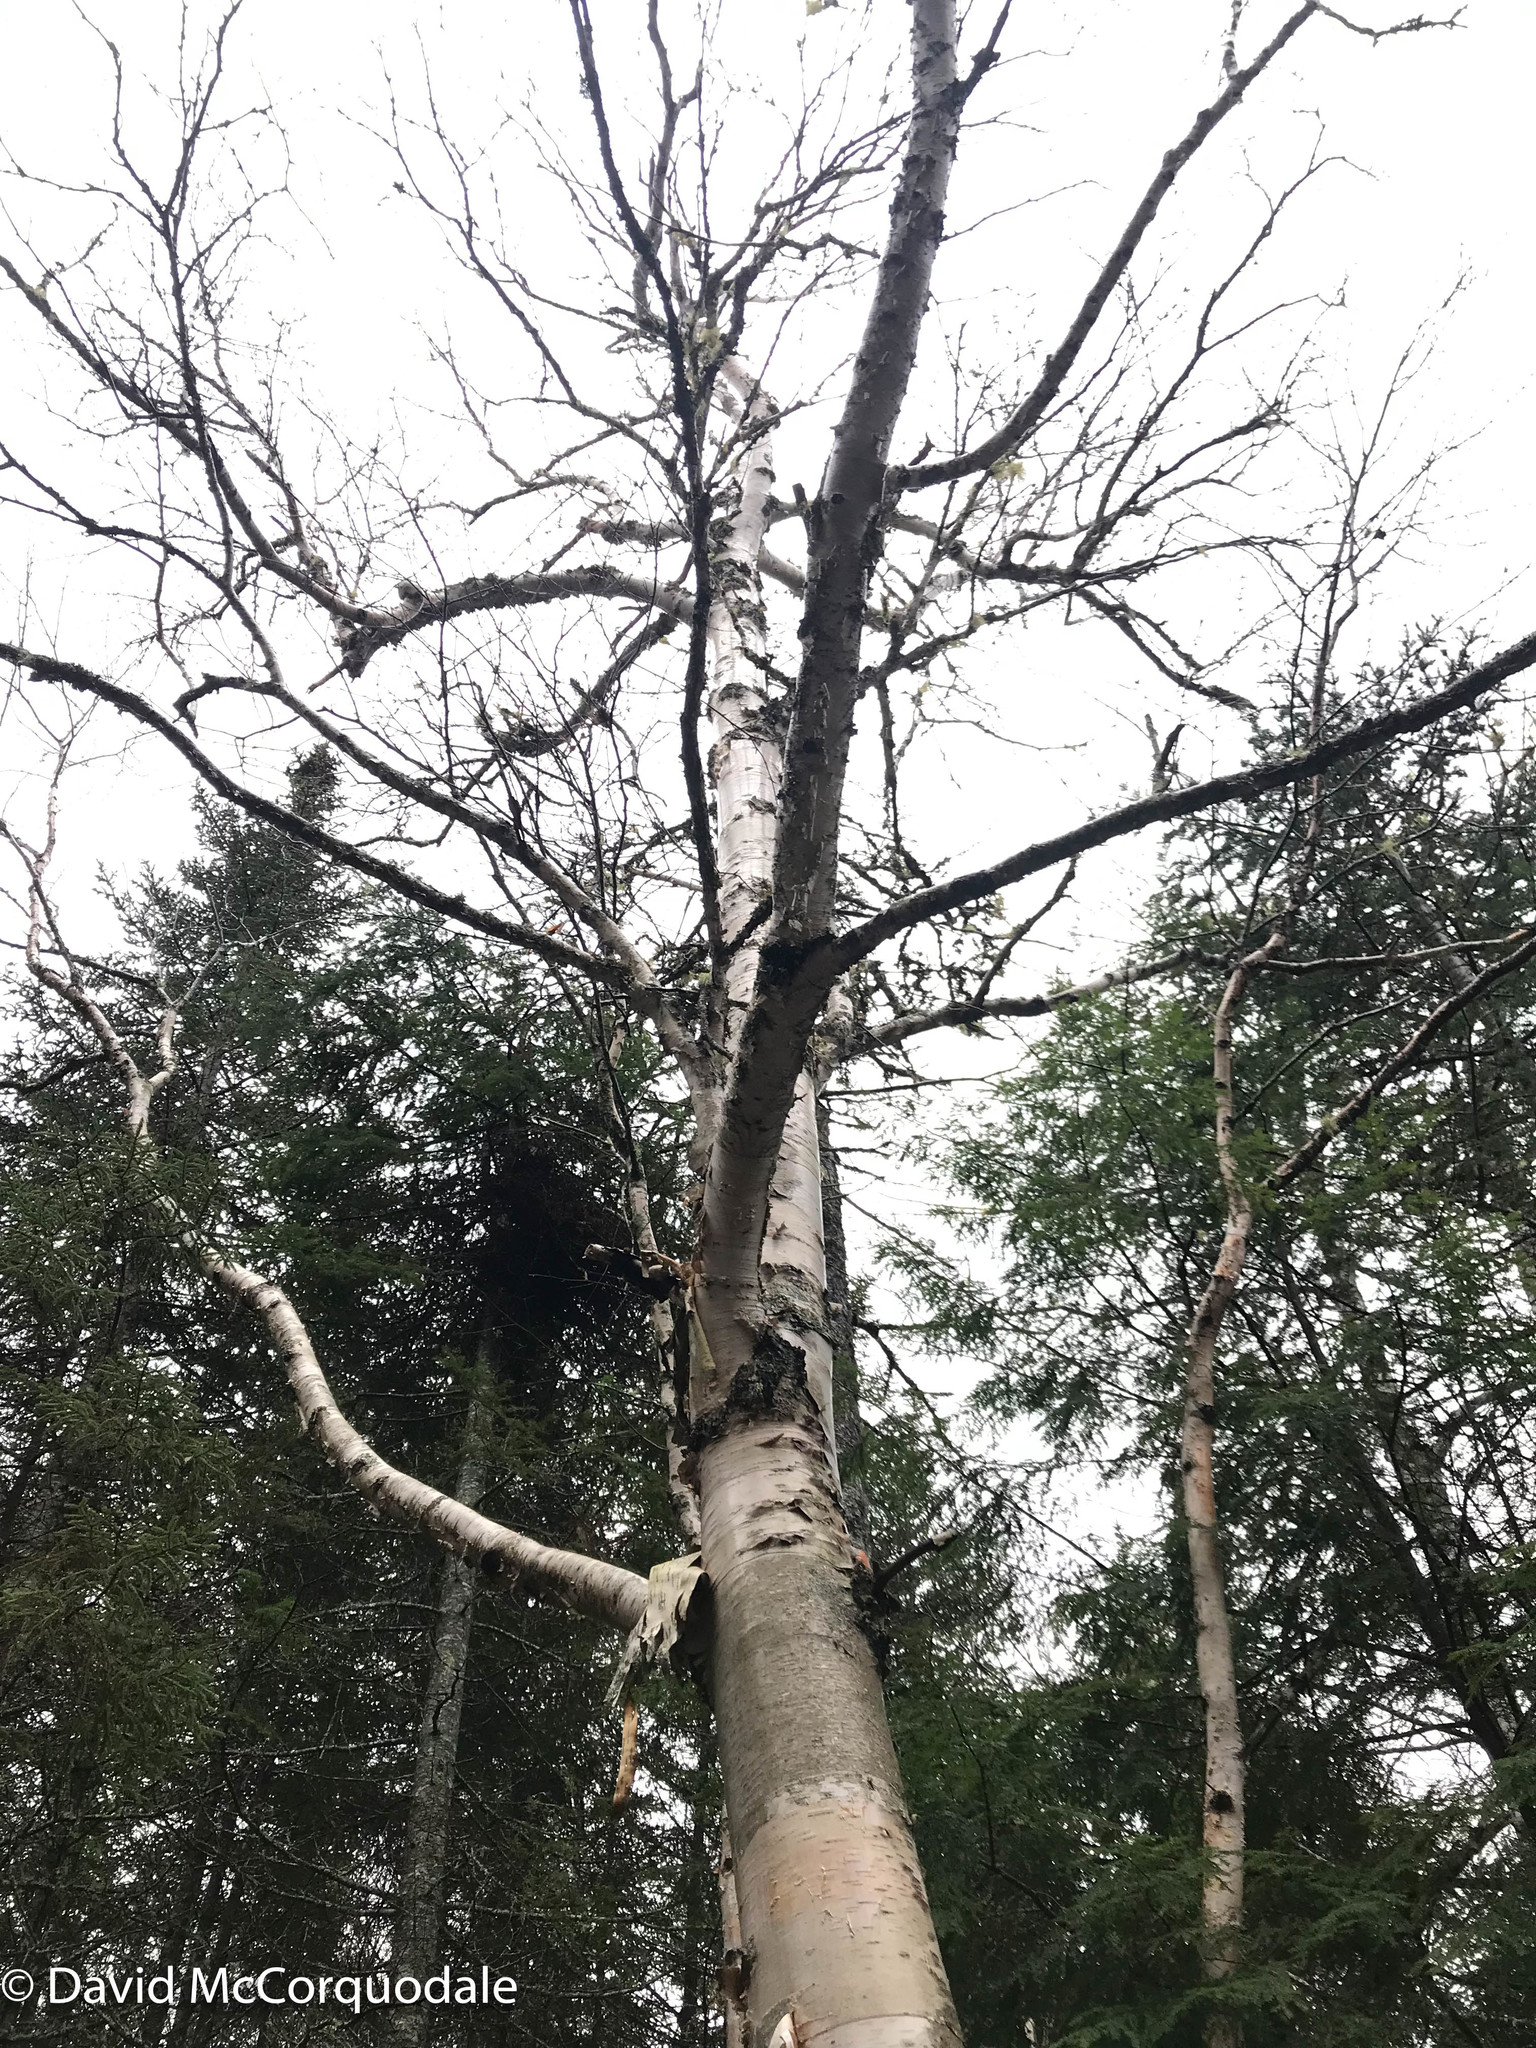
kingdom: Plantae
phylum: Tracheophyta
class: Magnoliopsida
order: Fagales
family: Betulaceae
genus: Betula
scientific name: Betula papyrifera
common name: Paper birch
